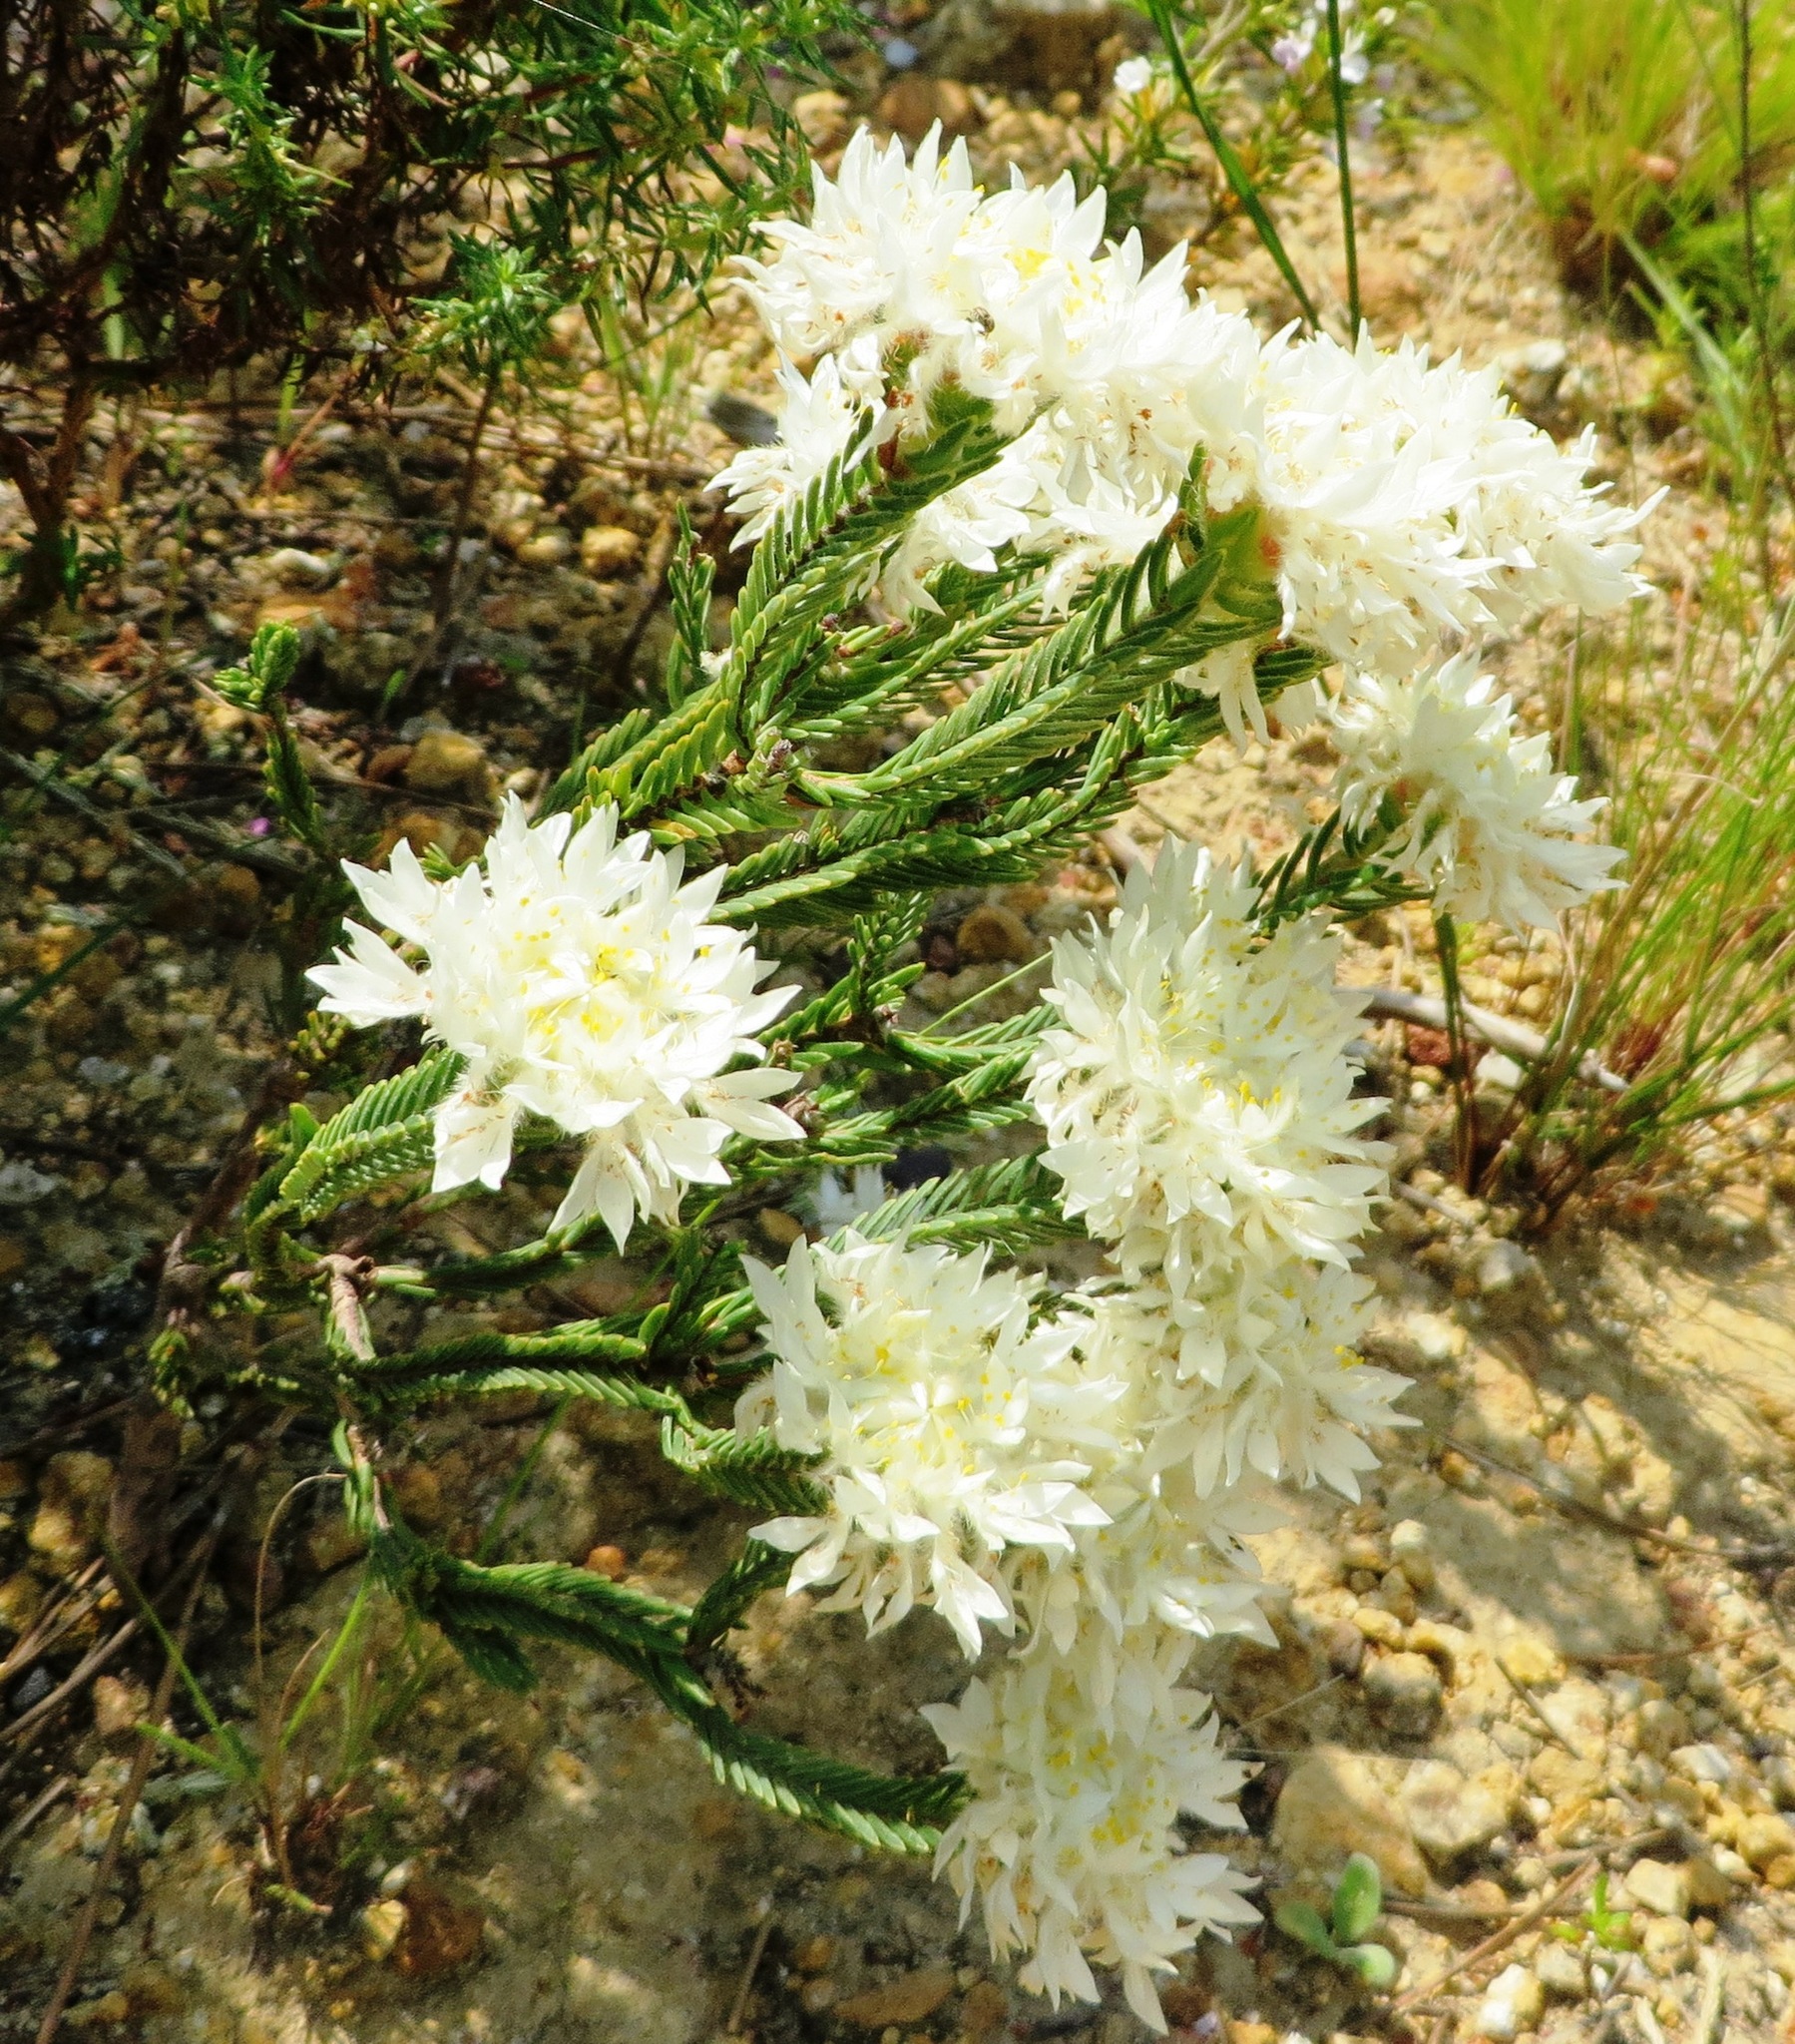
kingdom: Plantae
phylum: Tracheophyta
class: Magnoliopsida
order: Malvales
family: Thymelaeaceae
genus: Lachnaea
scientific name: Lachnaea eriocephala
